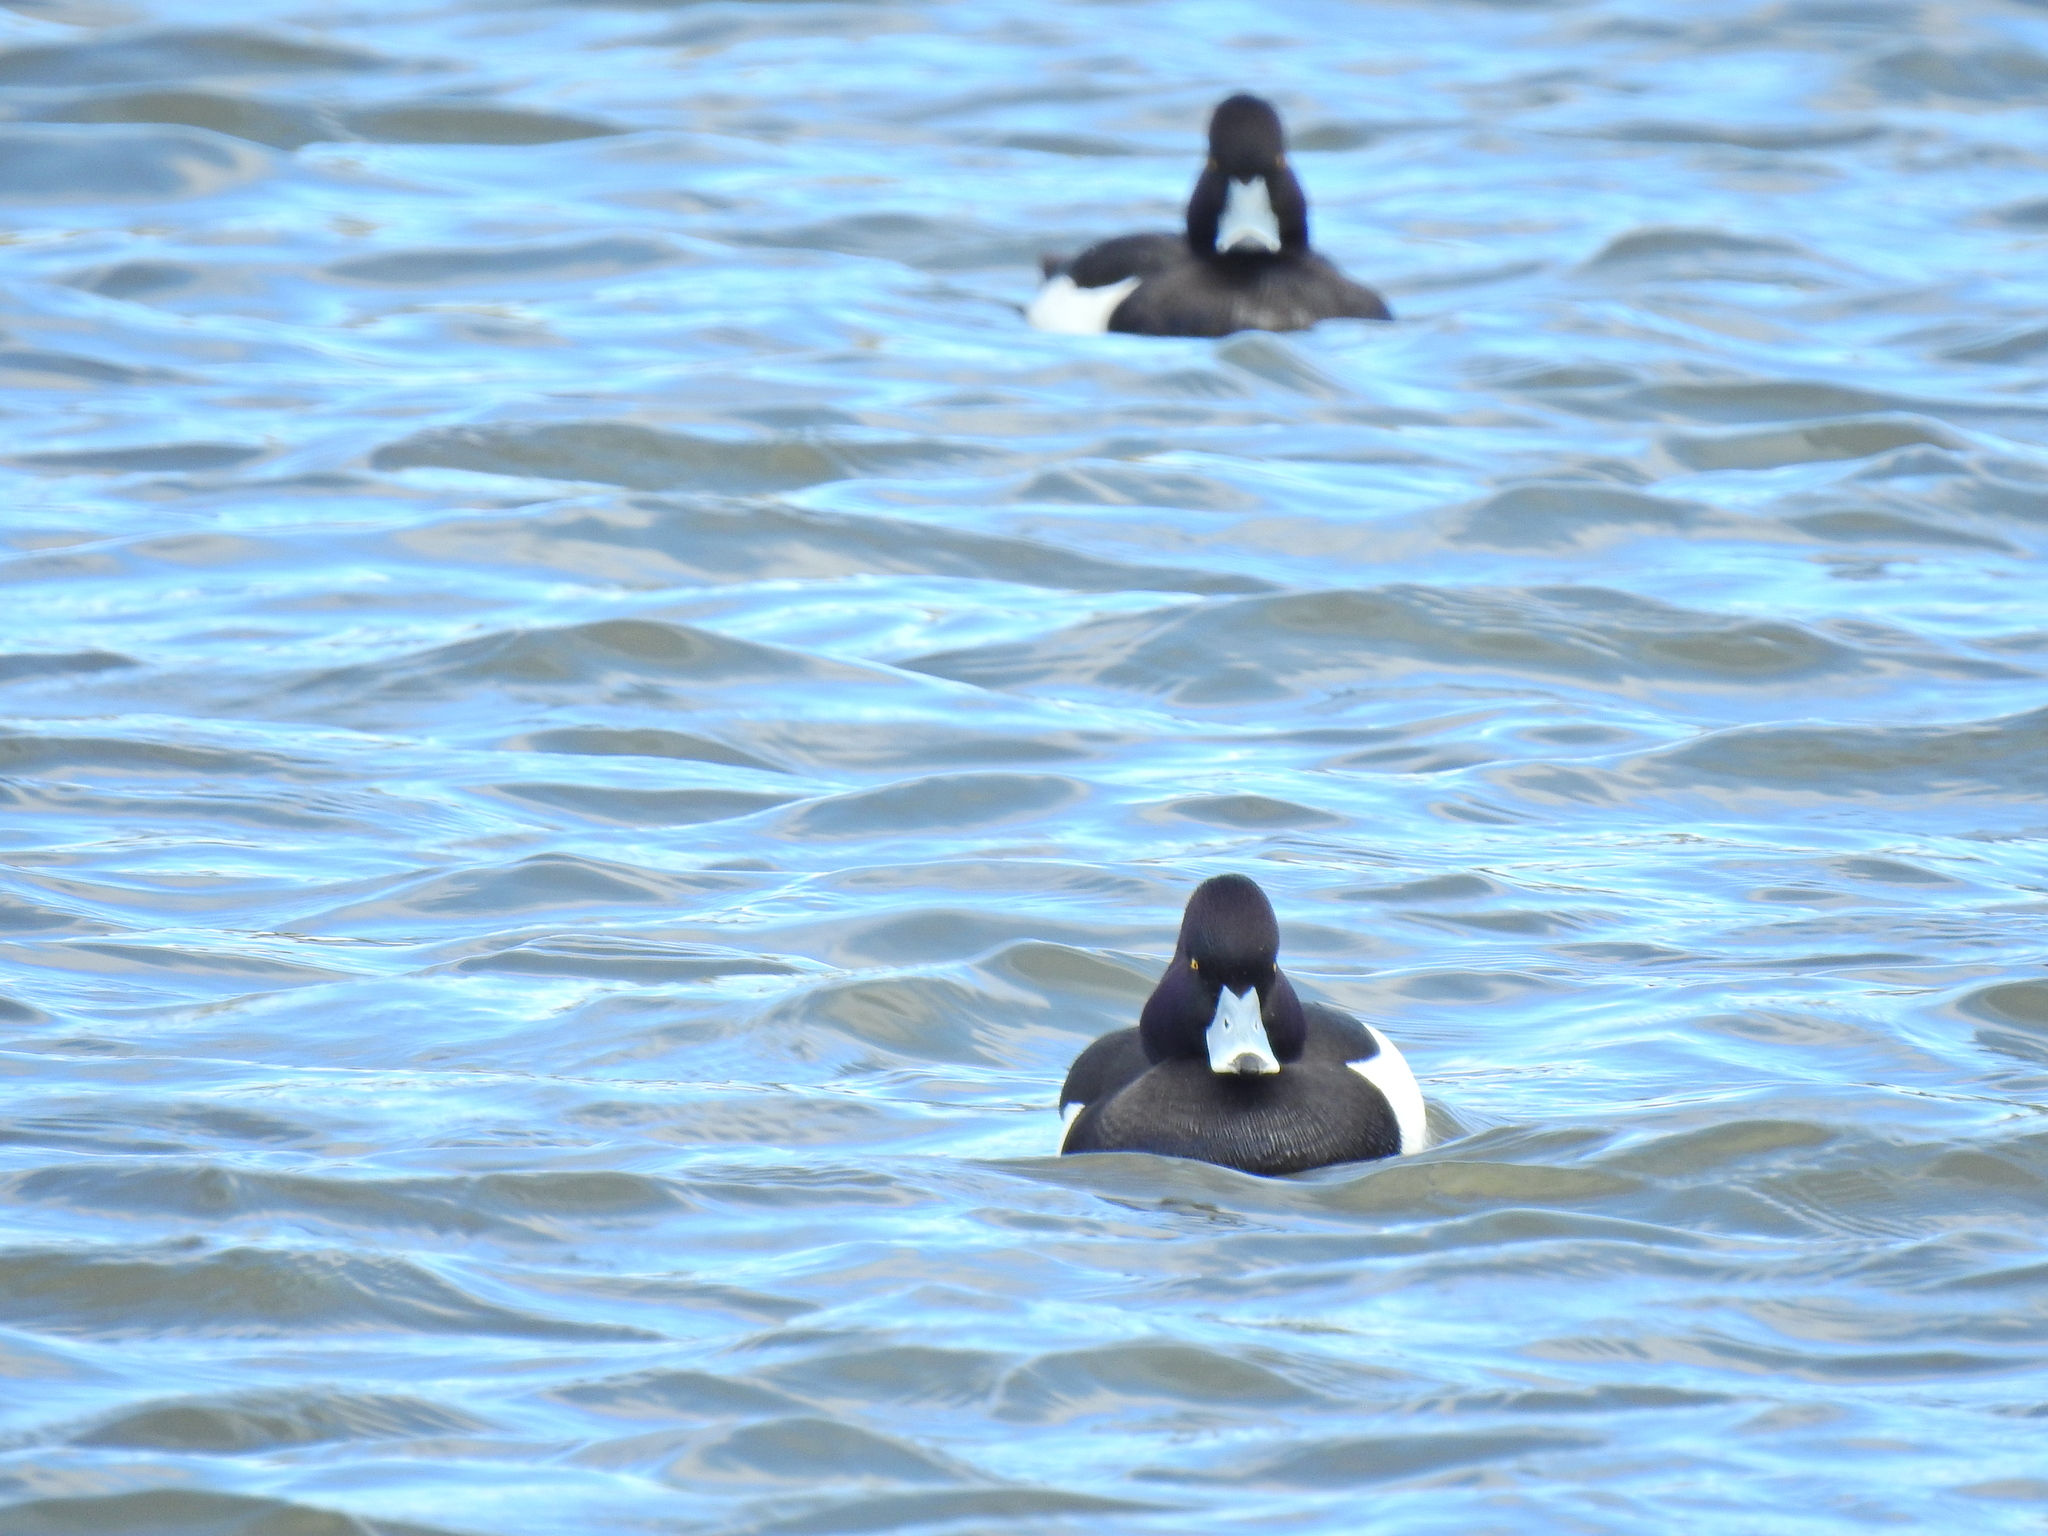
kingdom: Animalia
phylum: Chordata
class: Aves
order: Anseriformes
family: Anatidae
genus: Aythya
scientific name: Aythya fuligula
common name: Tufted duck
